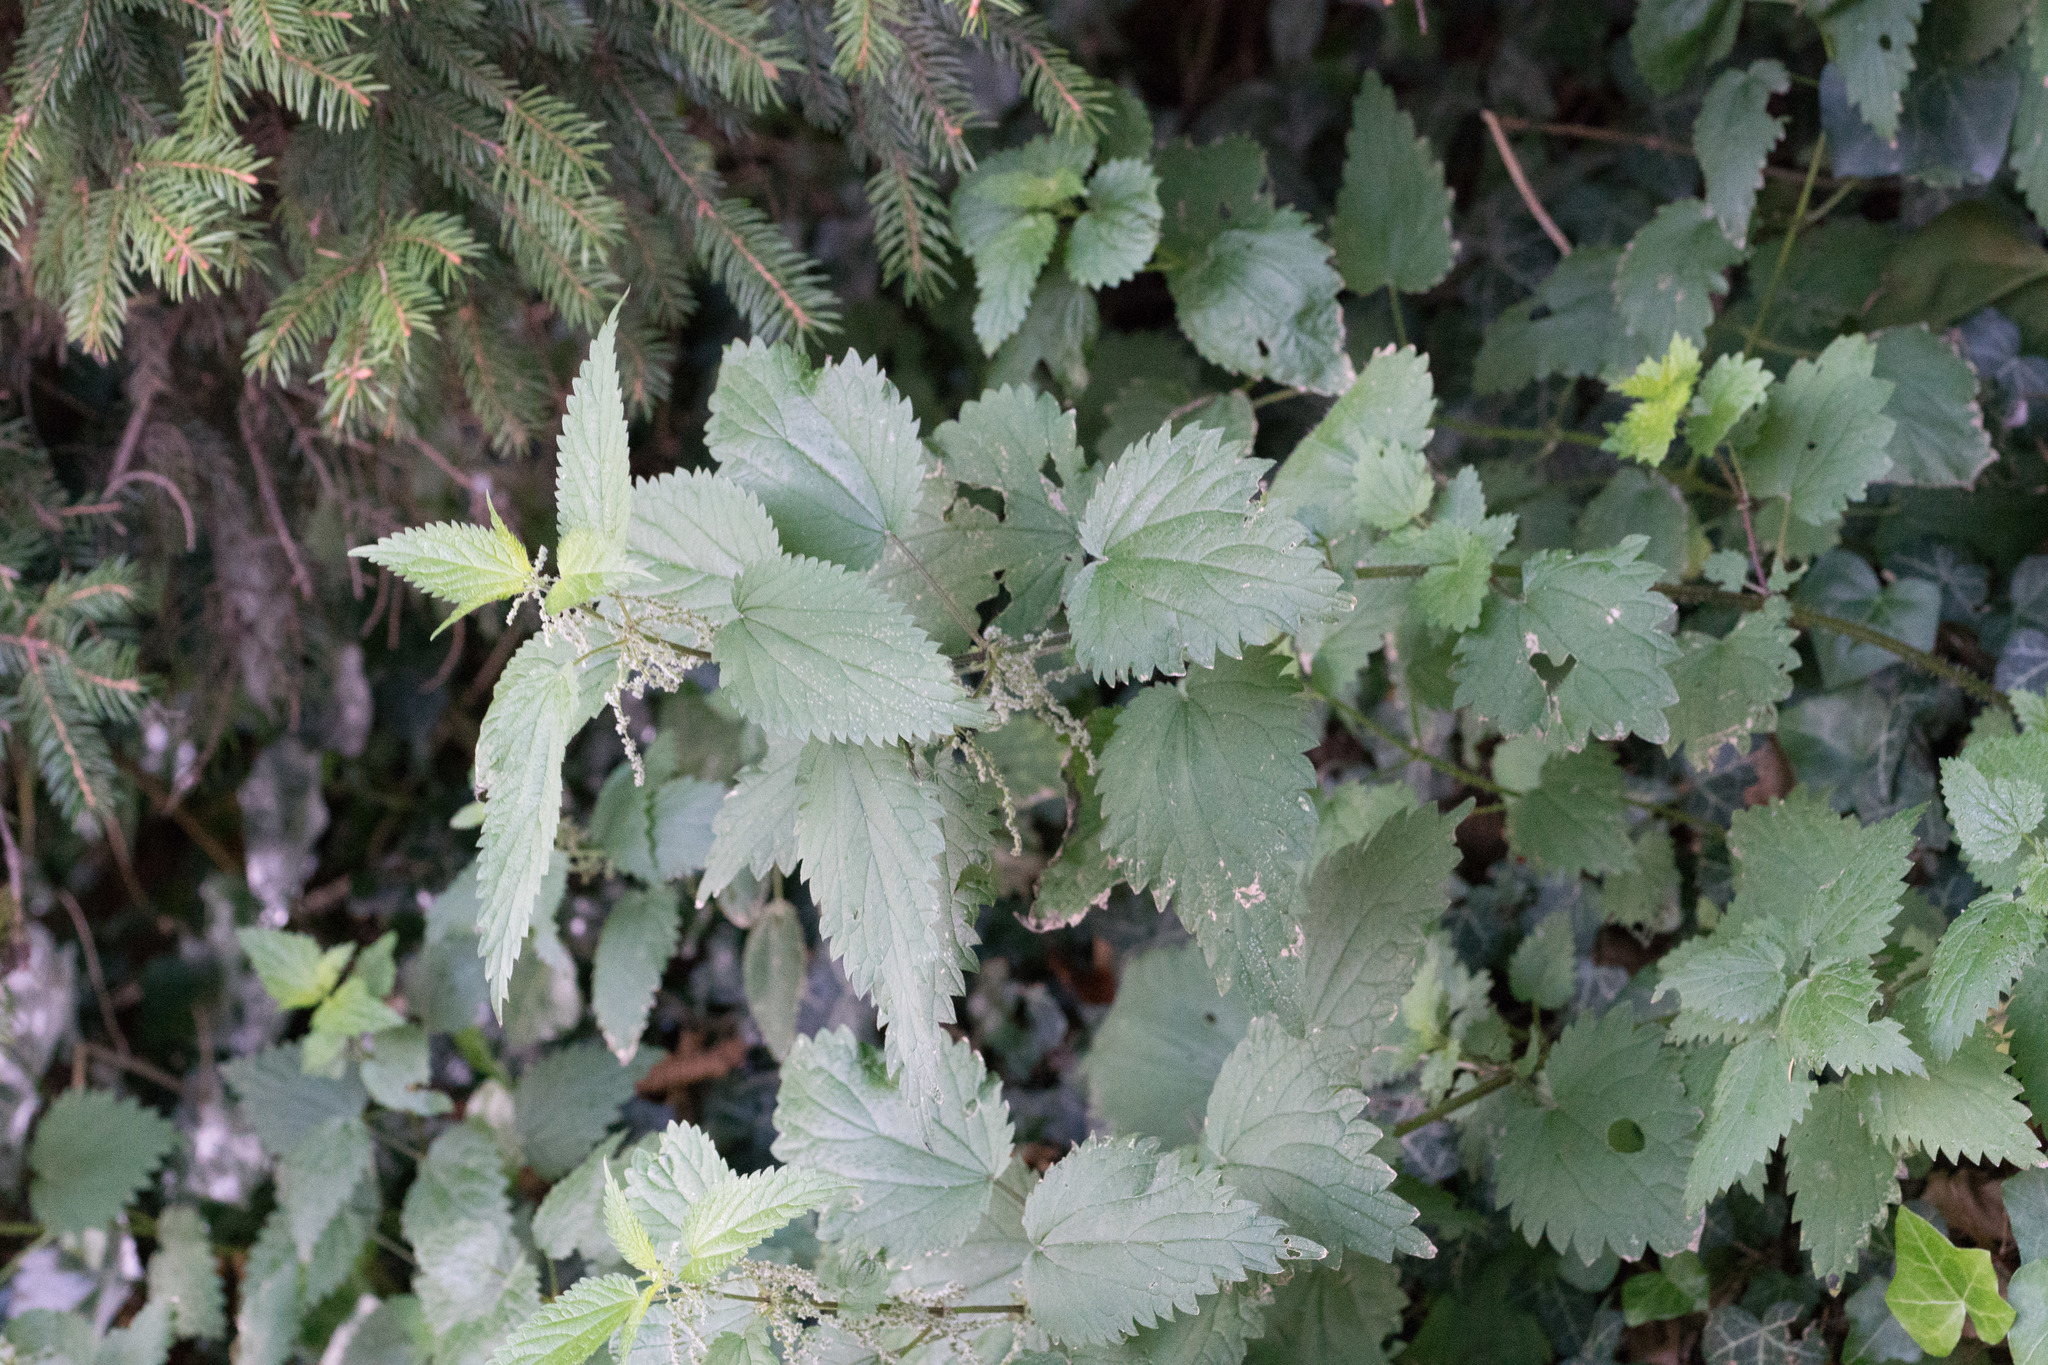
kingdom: Plantae
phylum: Tracheophyta
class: Magnoliopsida
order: Rosales
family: Urticaceae
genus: Urtica
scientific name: Urtica dioica
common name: Common nettle
